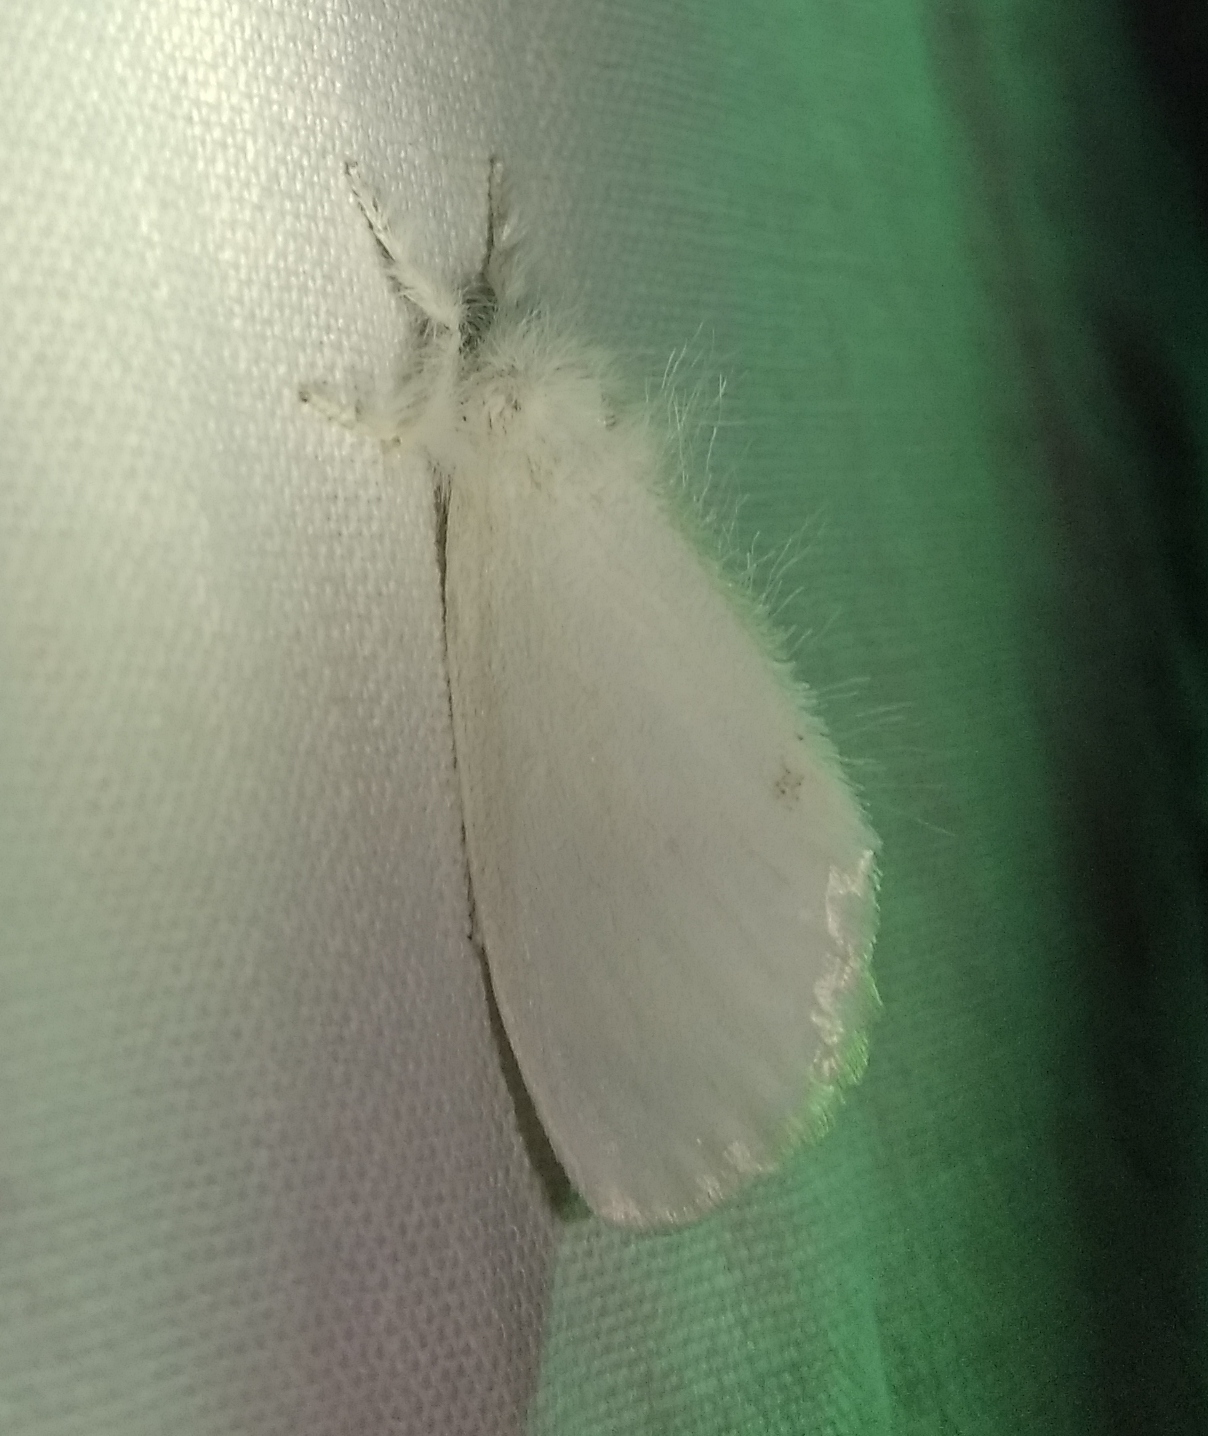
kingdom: Animalia
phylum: Arthropoda
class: Insecta
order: Lepidoptera
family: Erebidae
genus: Sphrageidus
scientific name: Sphrageidus similis
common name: Yellow-tail
